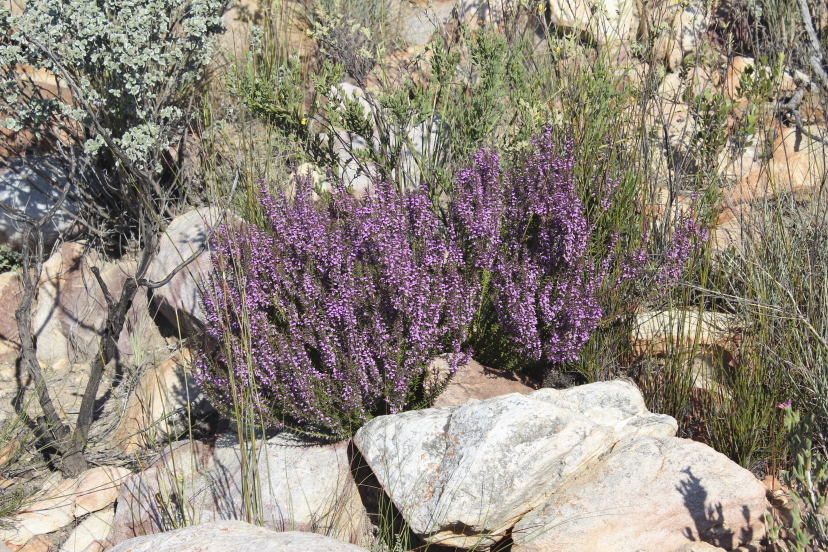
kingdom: Plantae
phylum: Tracheophyta
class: Magnoliopsida
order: Fabales
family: Polygalaceae
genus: Muraltia
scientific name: Muraltia juniperifolia
